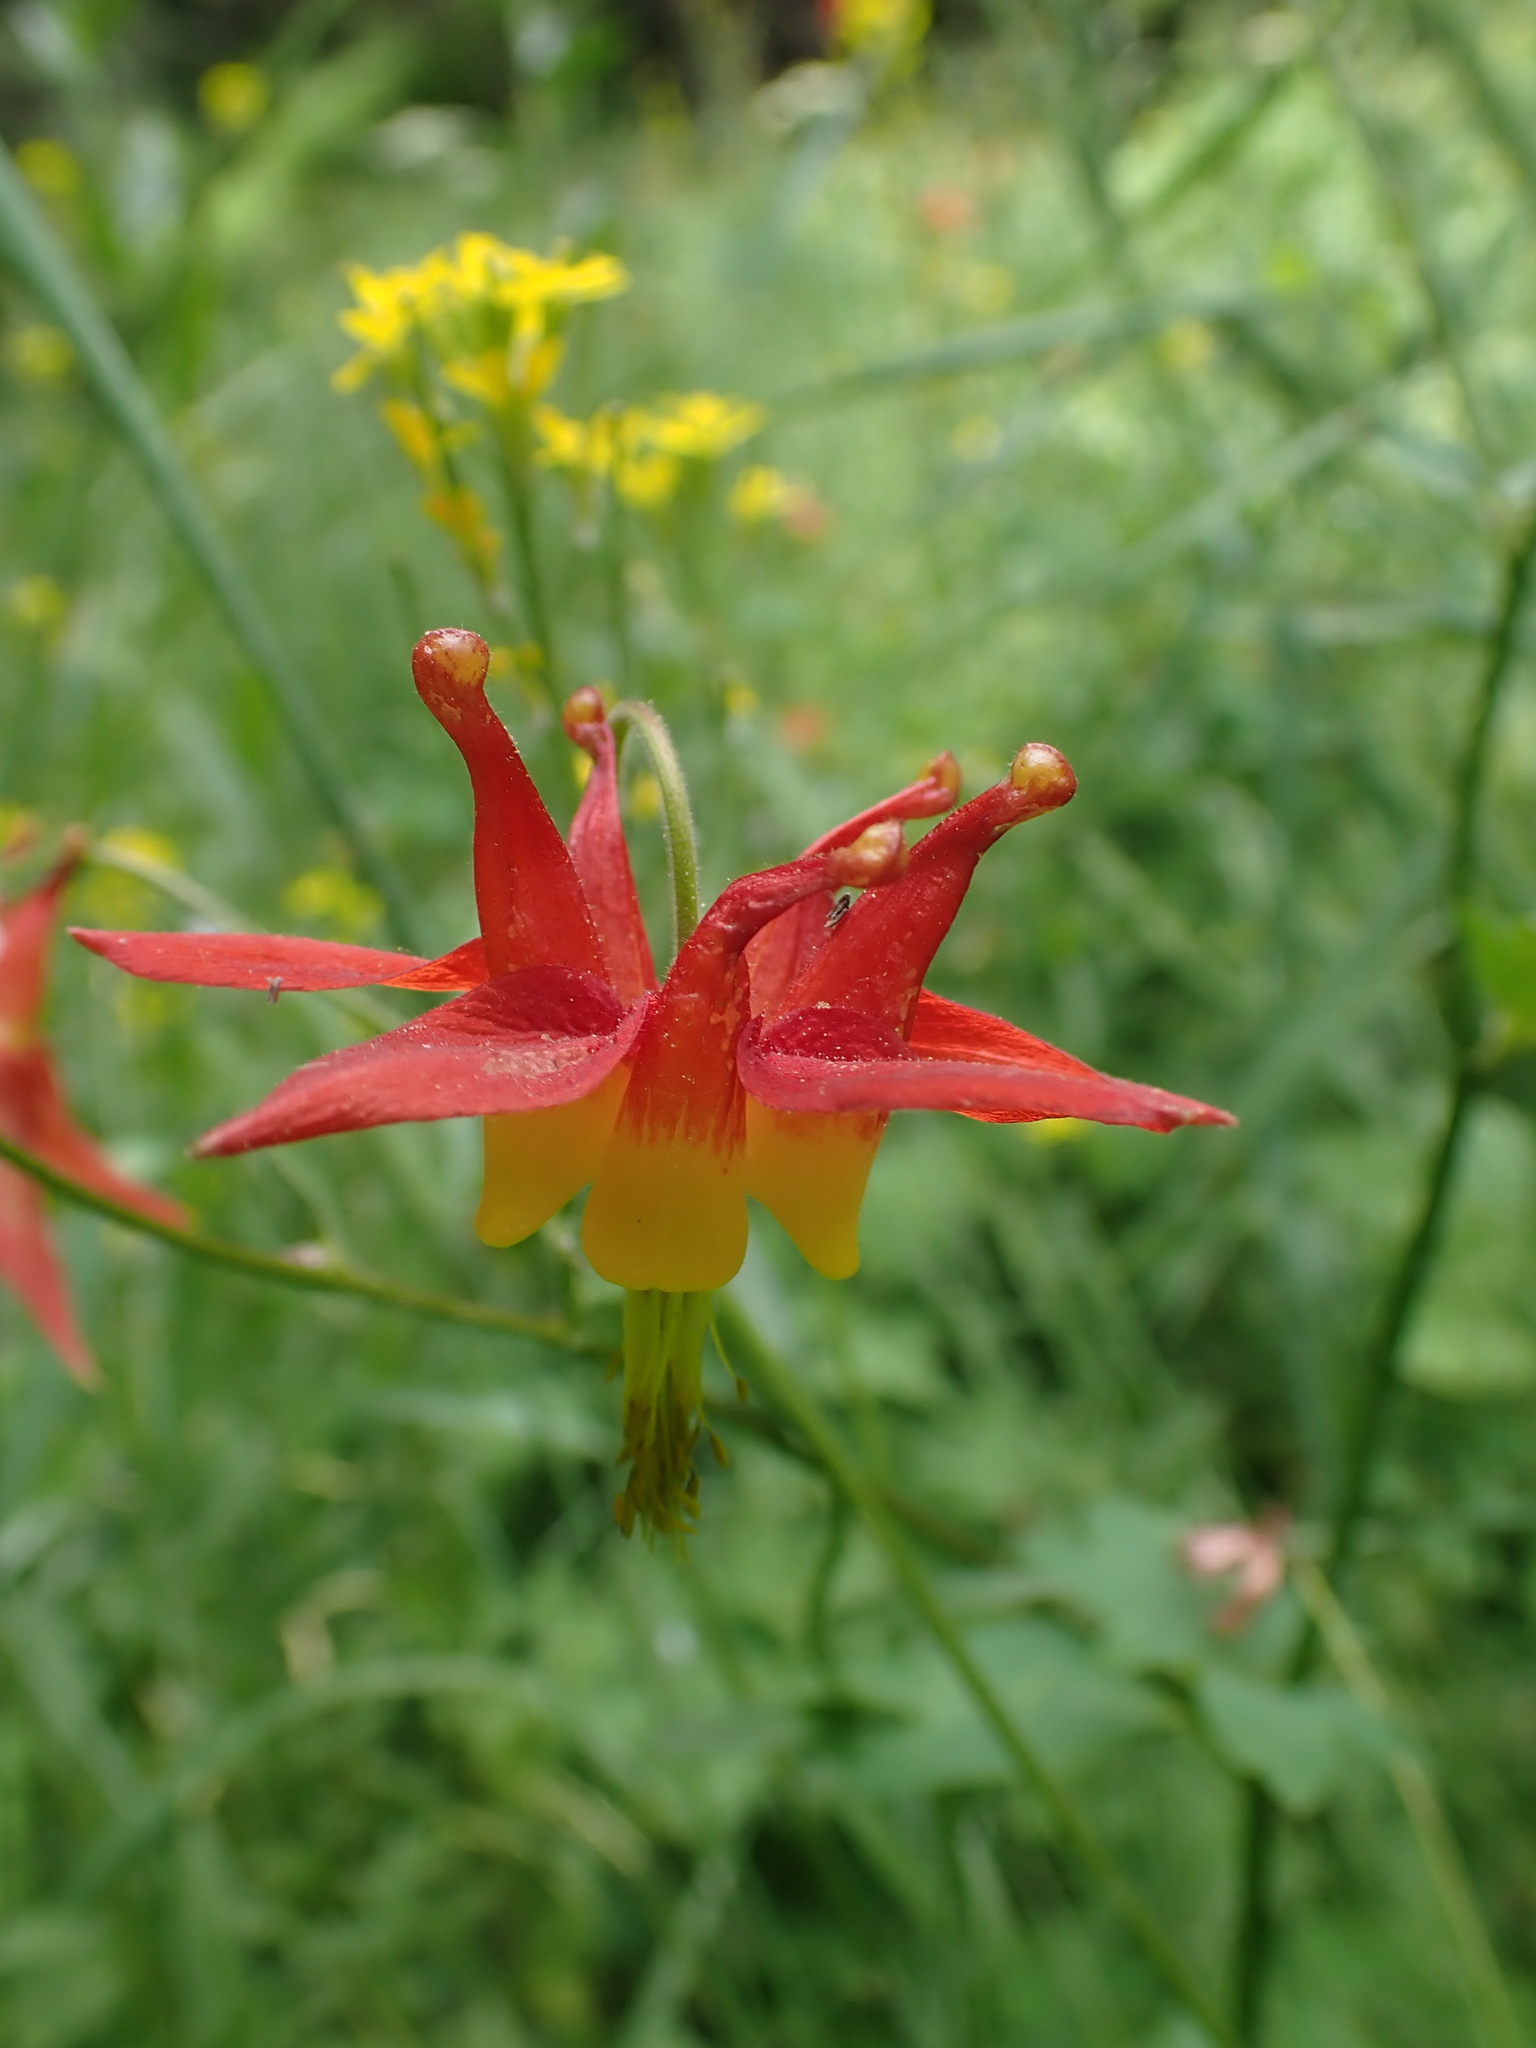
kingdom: Plantae
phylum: Tracheophyta
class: Magnoliopsida
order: Ranunculales
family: Ranunculaceae
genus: Aquilegia
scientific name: Aquilegia formosa
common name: Sitka columbine
